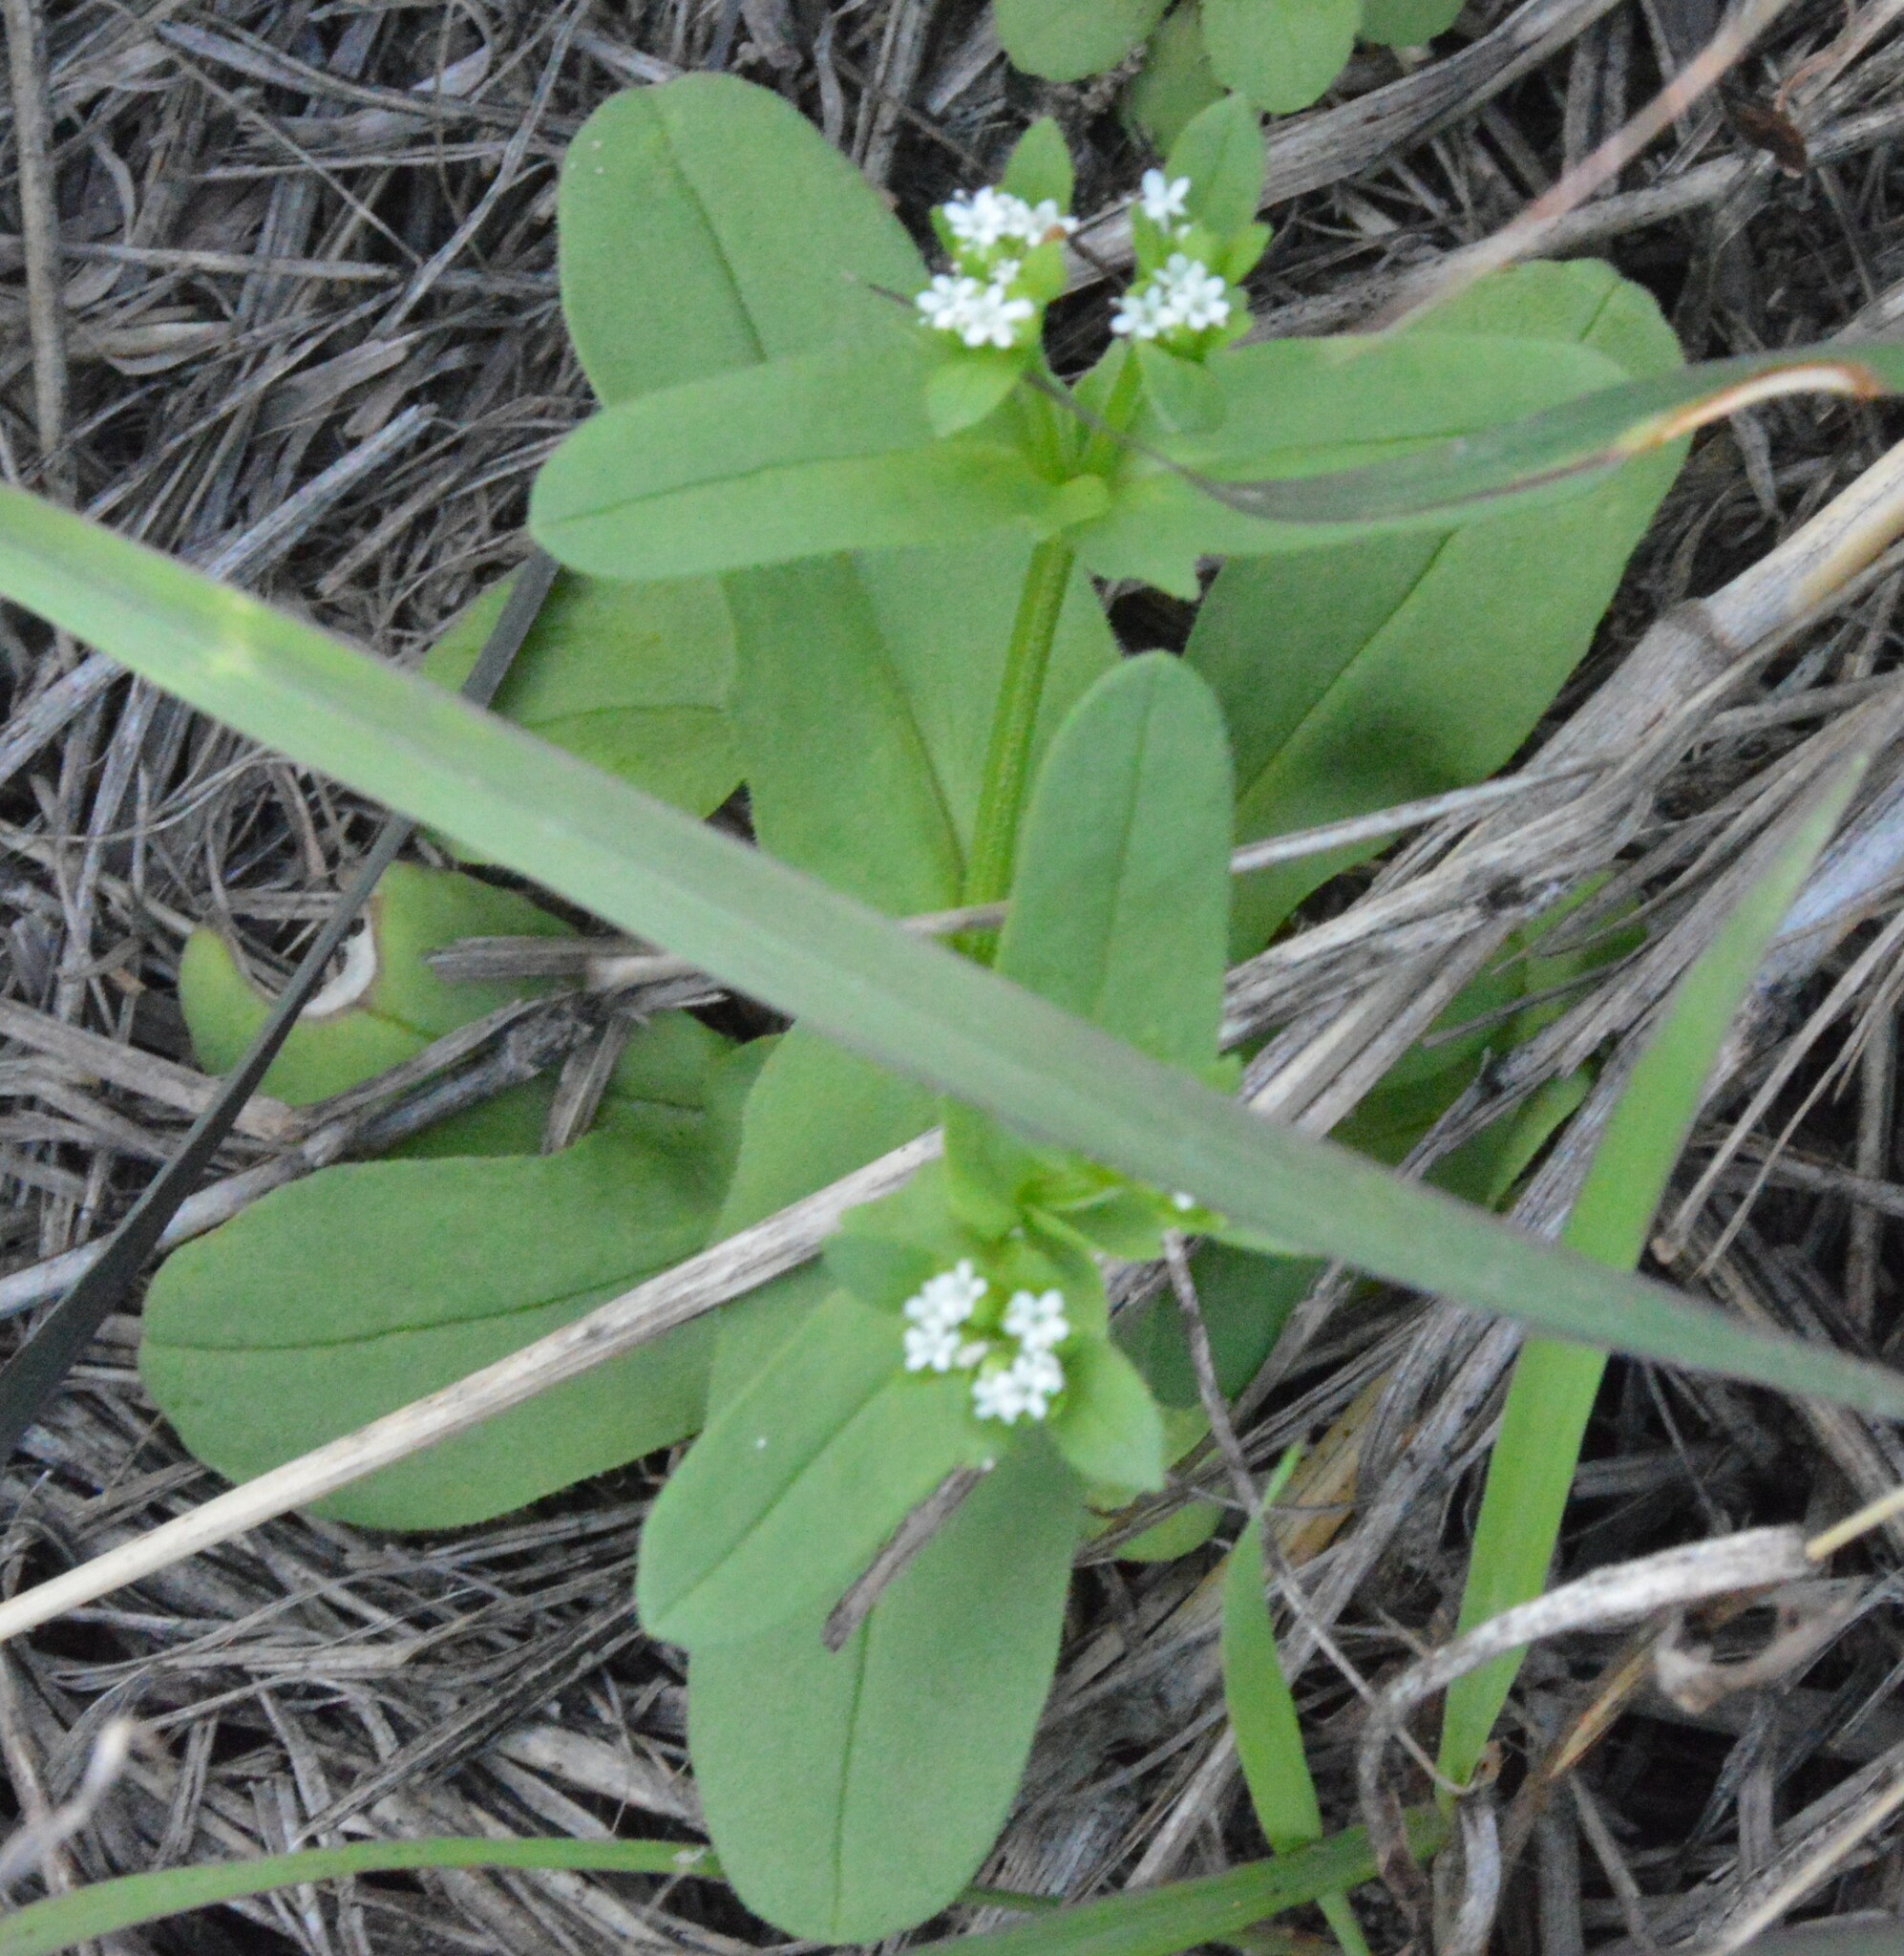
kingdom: Plantae
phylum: Tracheophyta
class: Magnoliopsida
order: Dipsacales
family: Caprifoliaceae
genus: Valerianella
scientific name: Valerianella radiata
